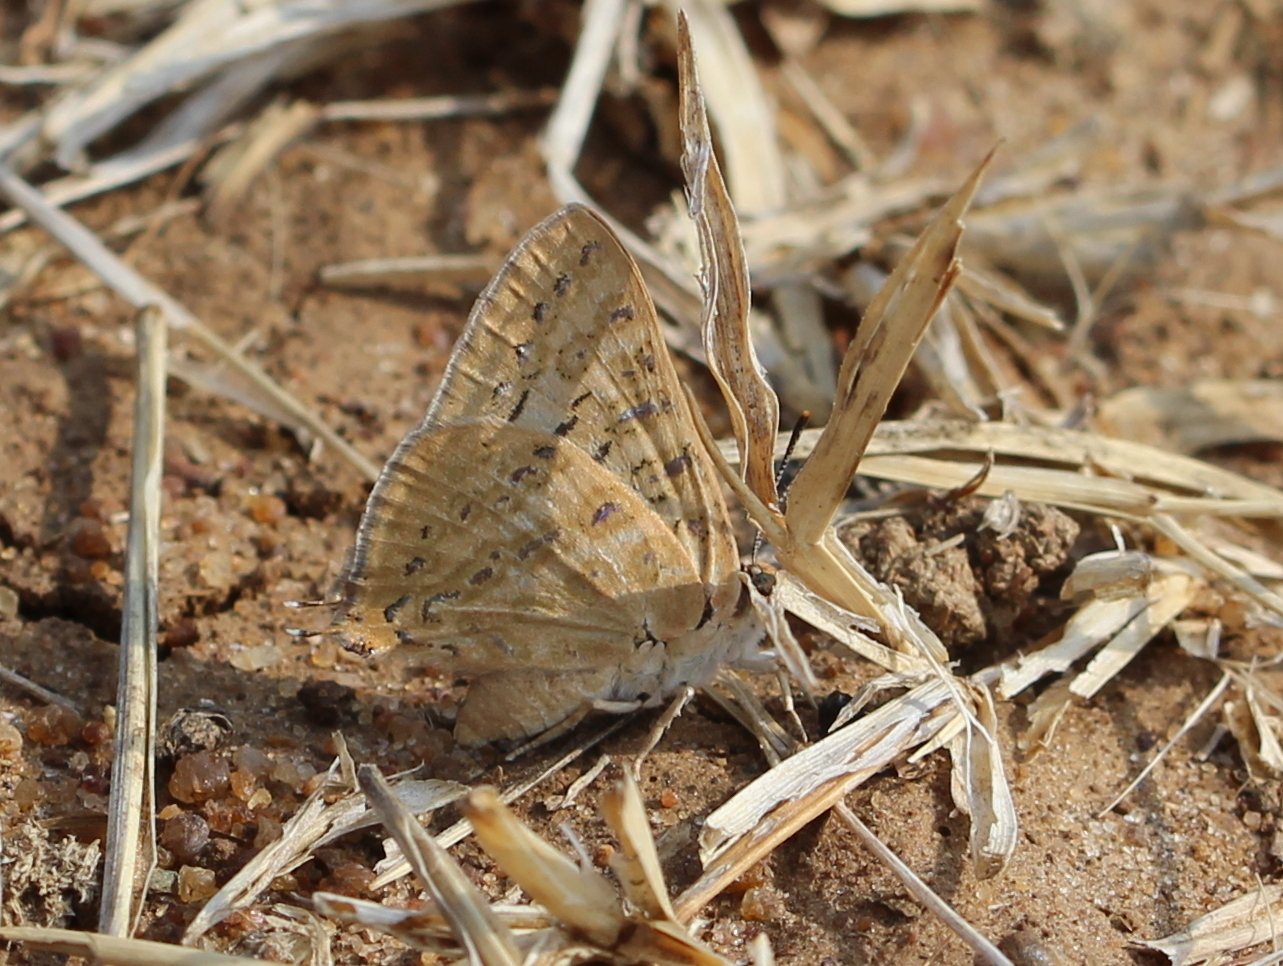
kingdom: Animalia
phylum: Arthropoda
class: Insecta
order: Lepidoptera
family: Lycaenidae
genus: Aphnaeus
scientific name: Aphnaeus lilacinus
